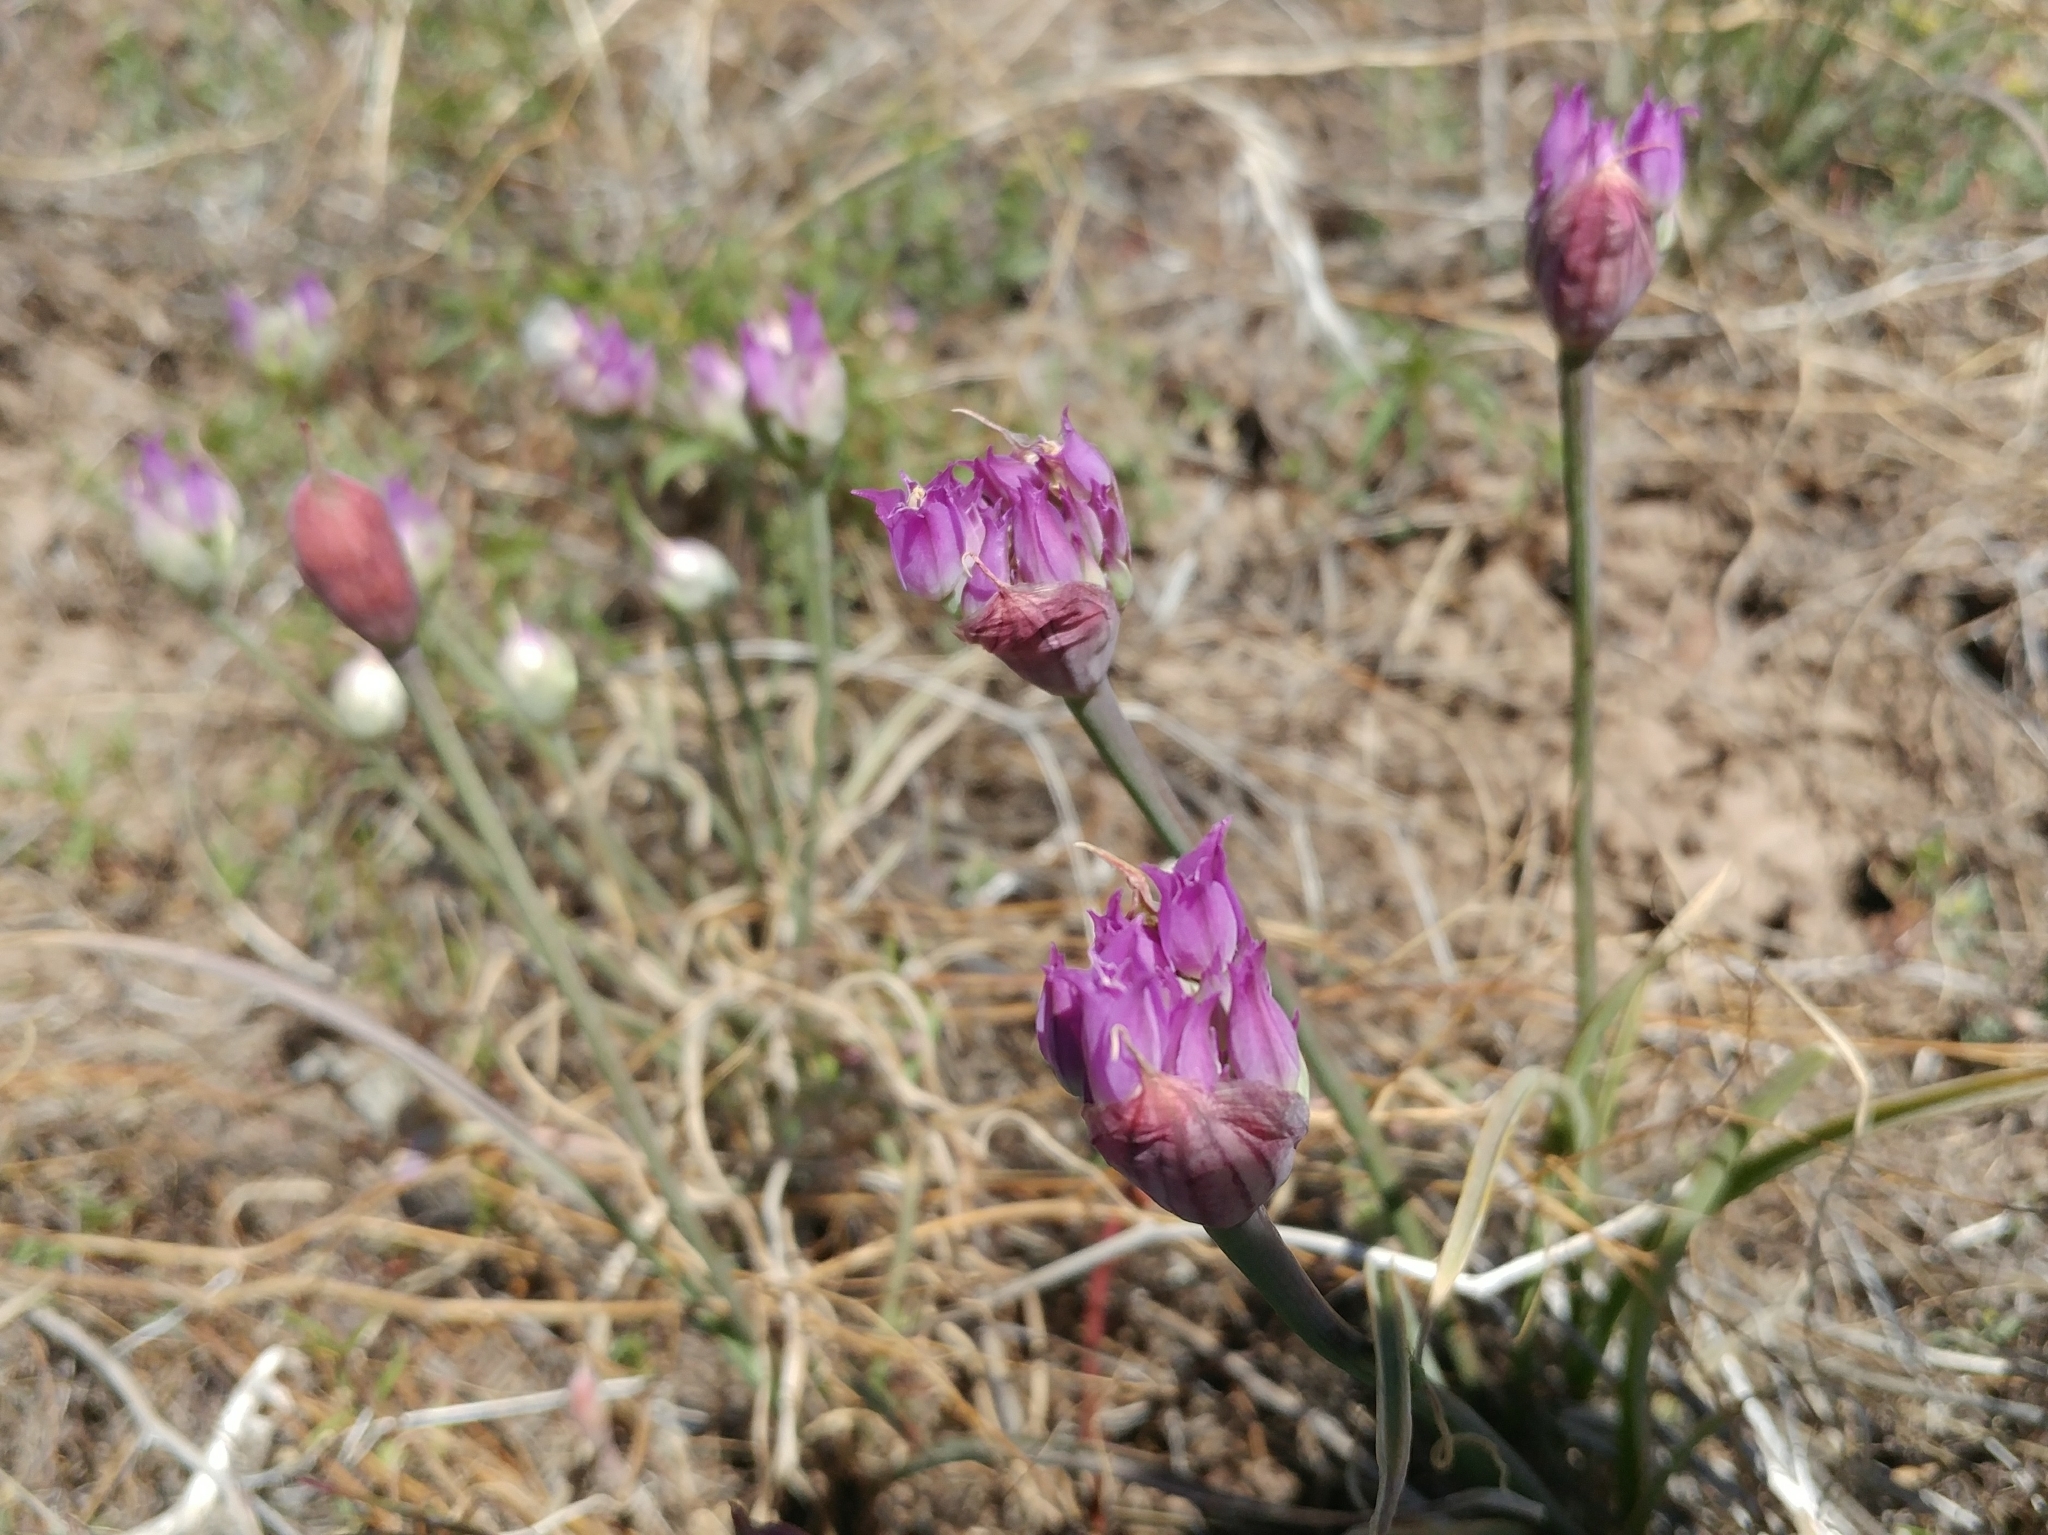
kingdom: Plantae
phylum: Tracheophyta
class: Liliopsida
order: Asparagales
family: Amaryllidaceae
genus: Allium
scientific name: Allium acuminatum
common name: Hooker's onion
